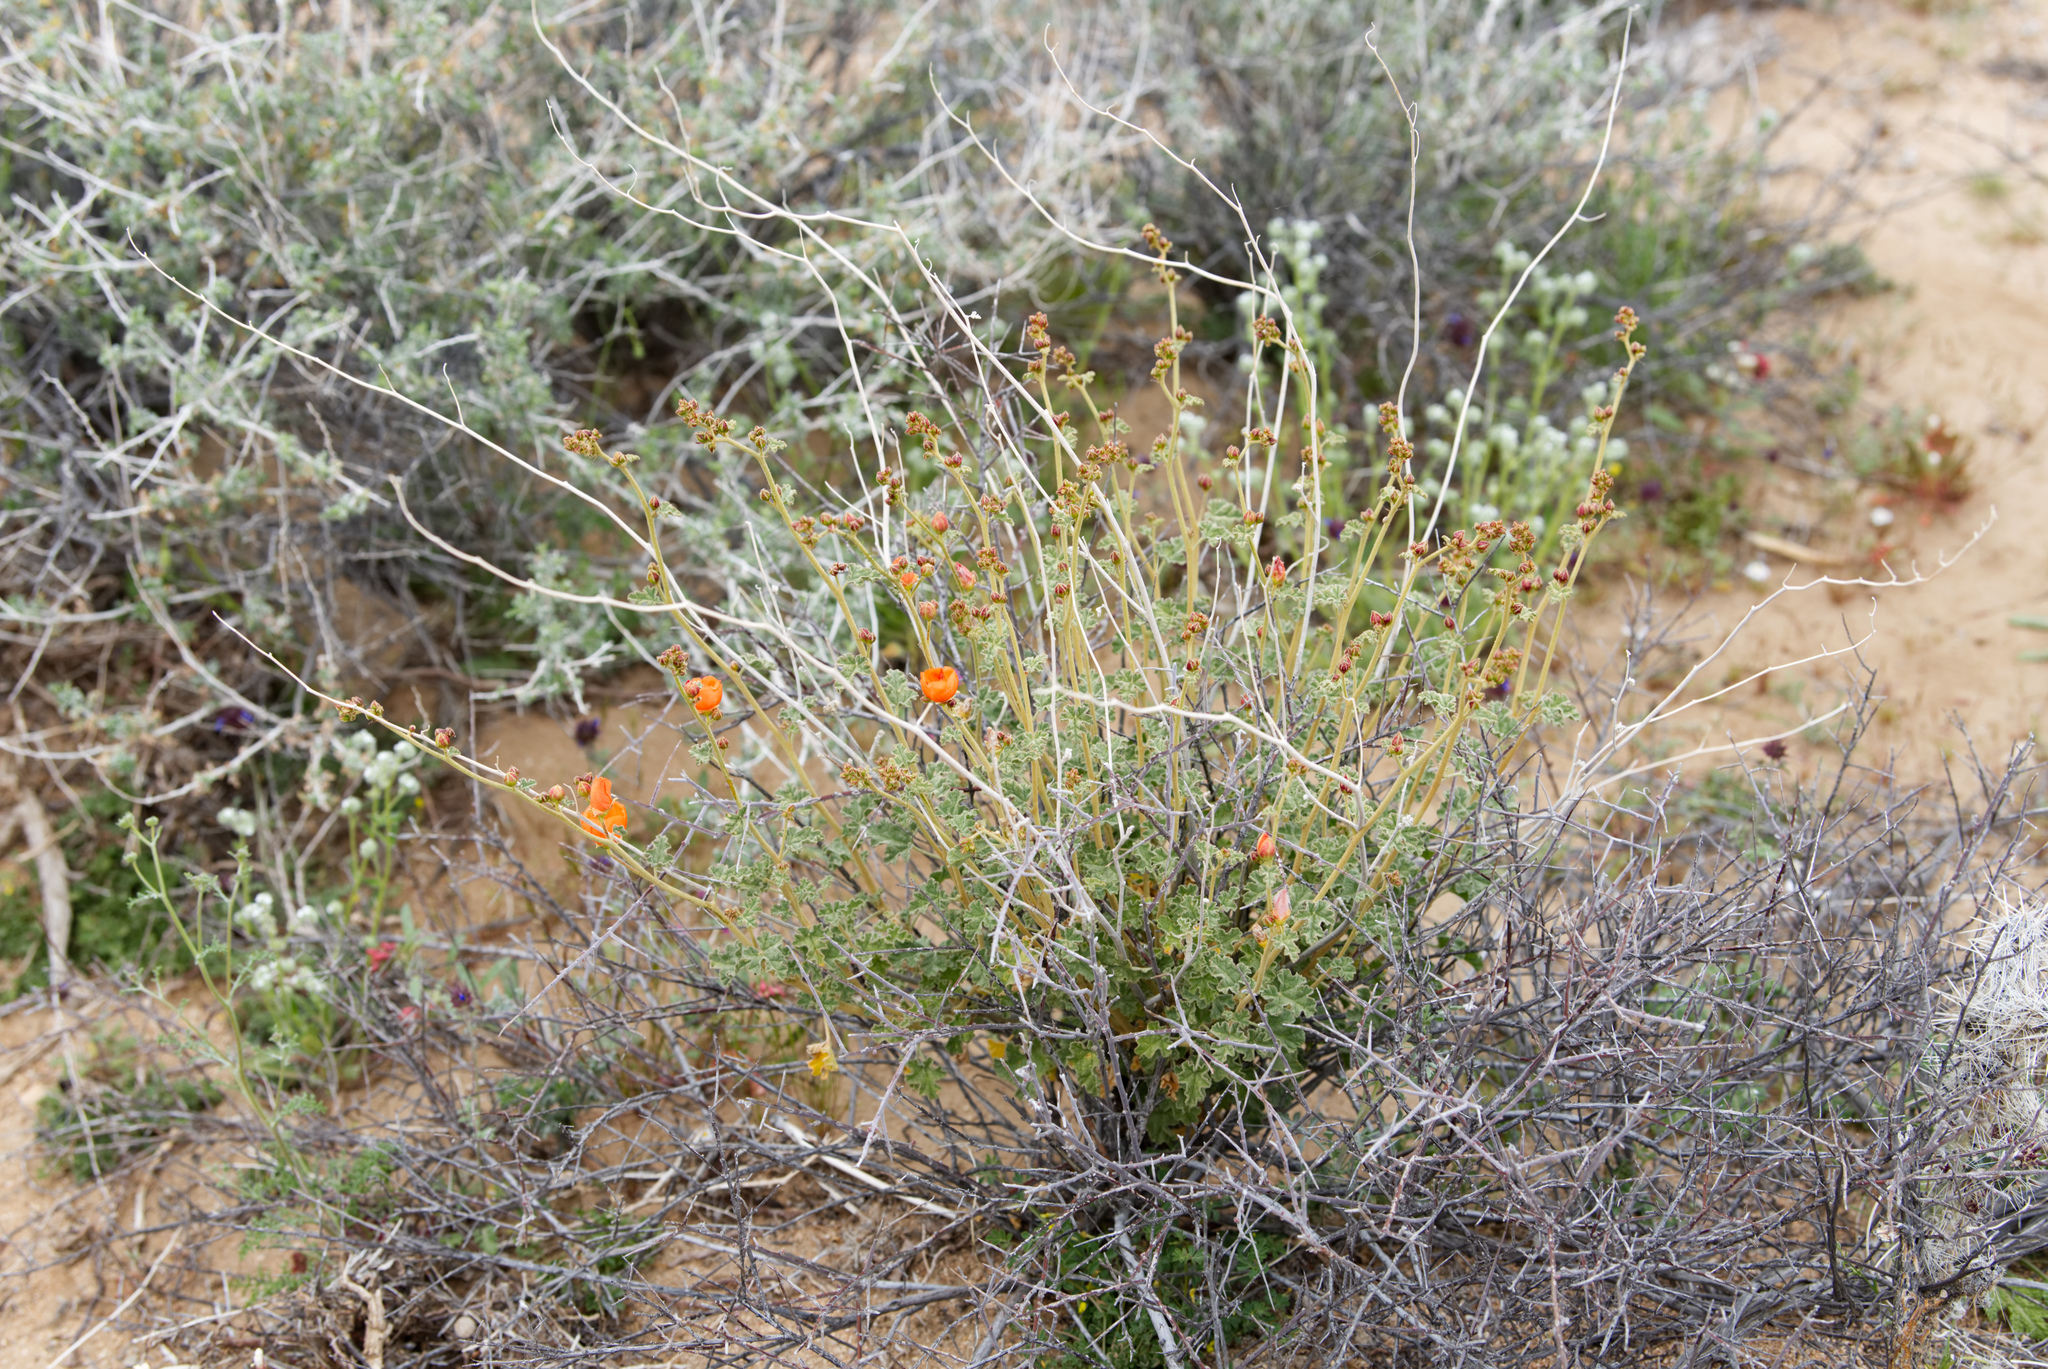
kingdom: Plantae
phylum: Tracheophyta
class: Magnoliopsida
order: Malvales
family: Malvaceae
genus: Sphaeralcea
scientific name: Sphaeralcea ambigua
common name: Apricot globe-mallow
